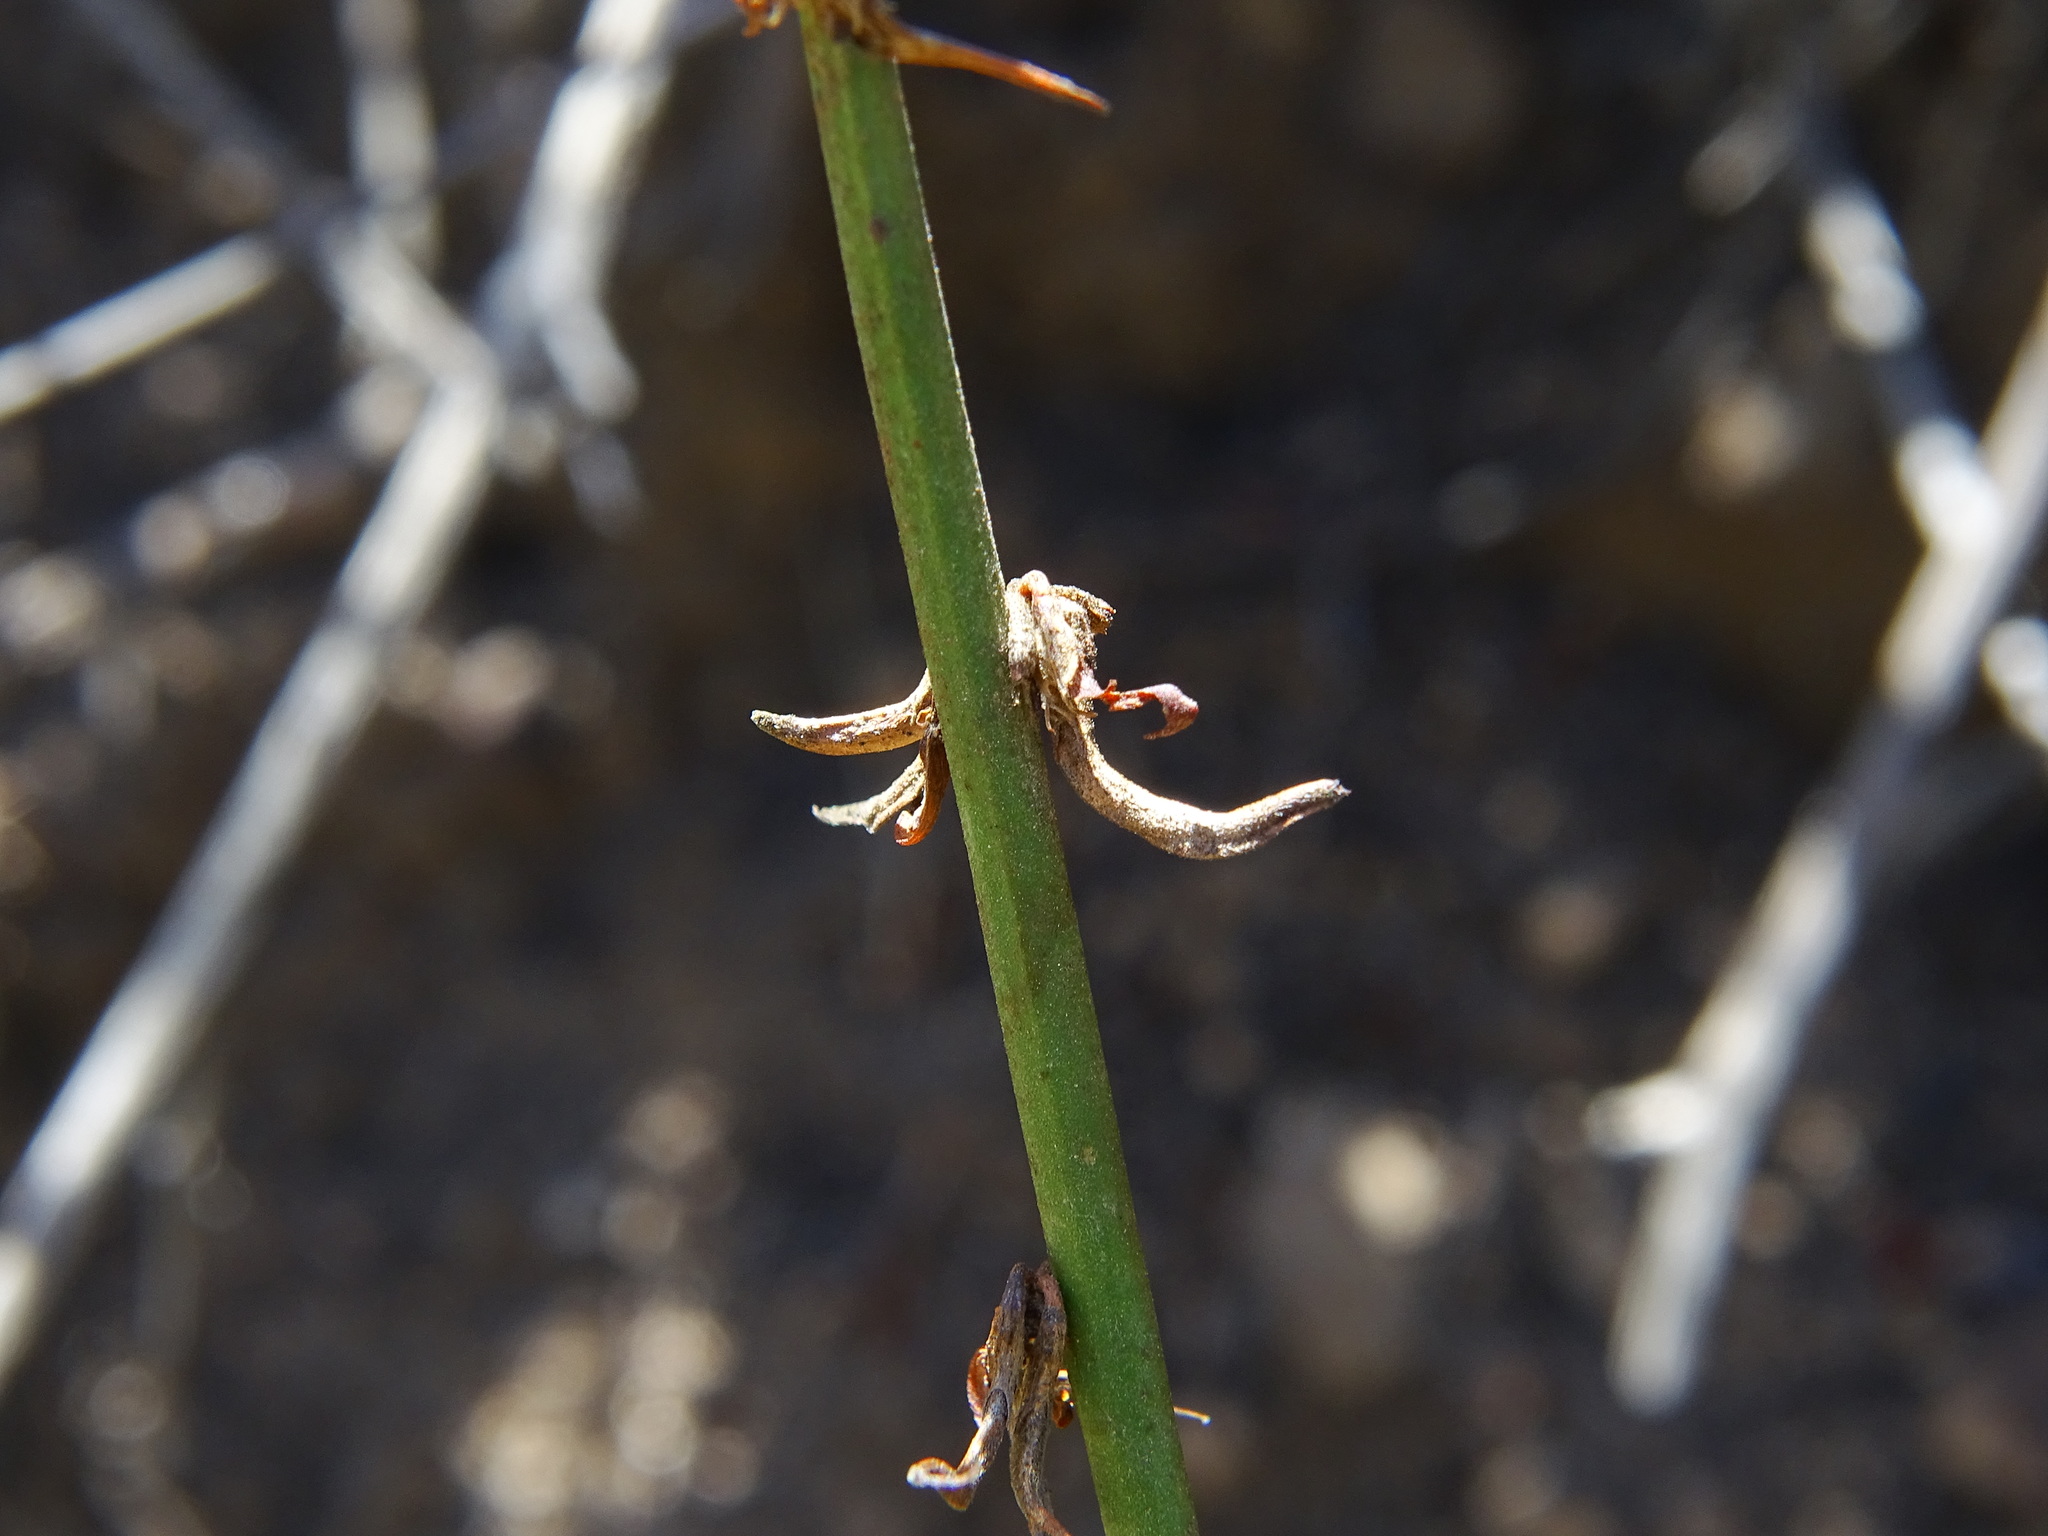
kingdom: Plantae
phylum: Tracheophyta
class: Magnoliopsida
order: Fabales
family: Fabaceae
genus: Acmispon
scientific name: Acmispon glaber
